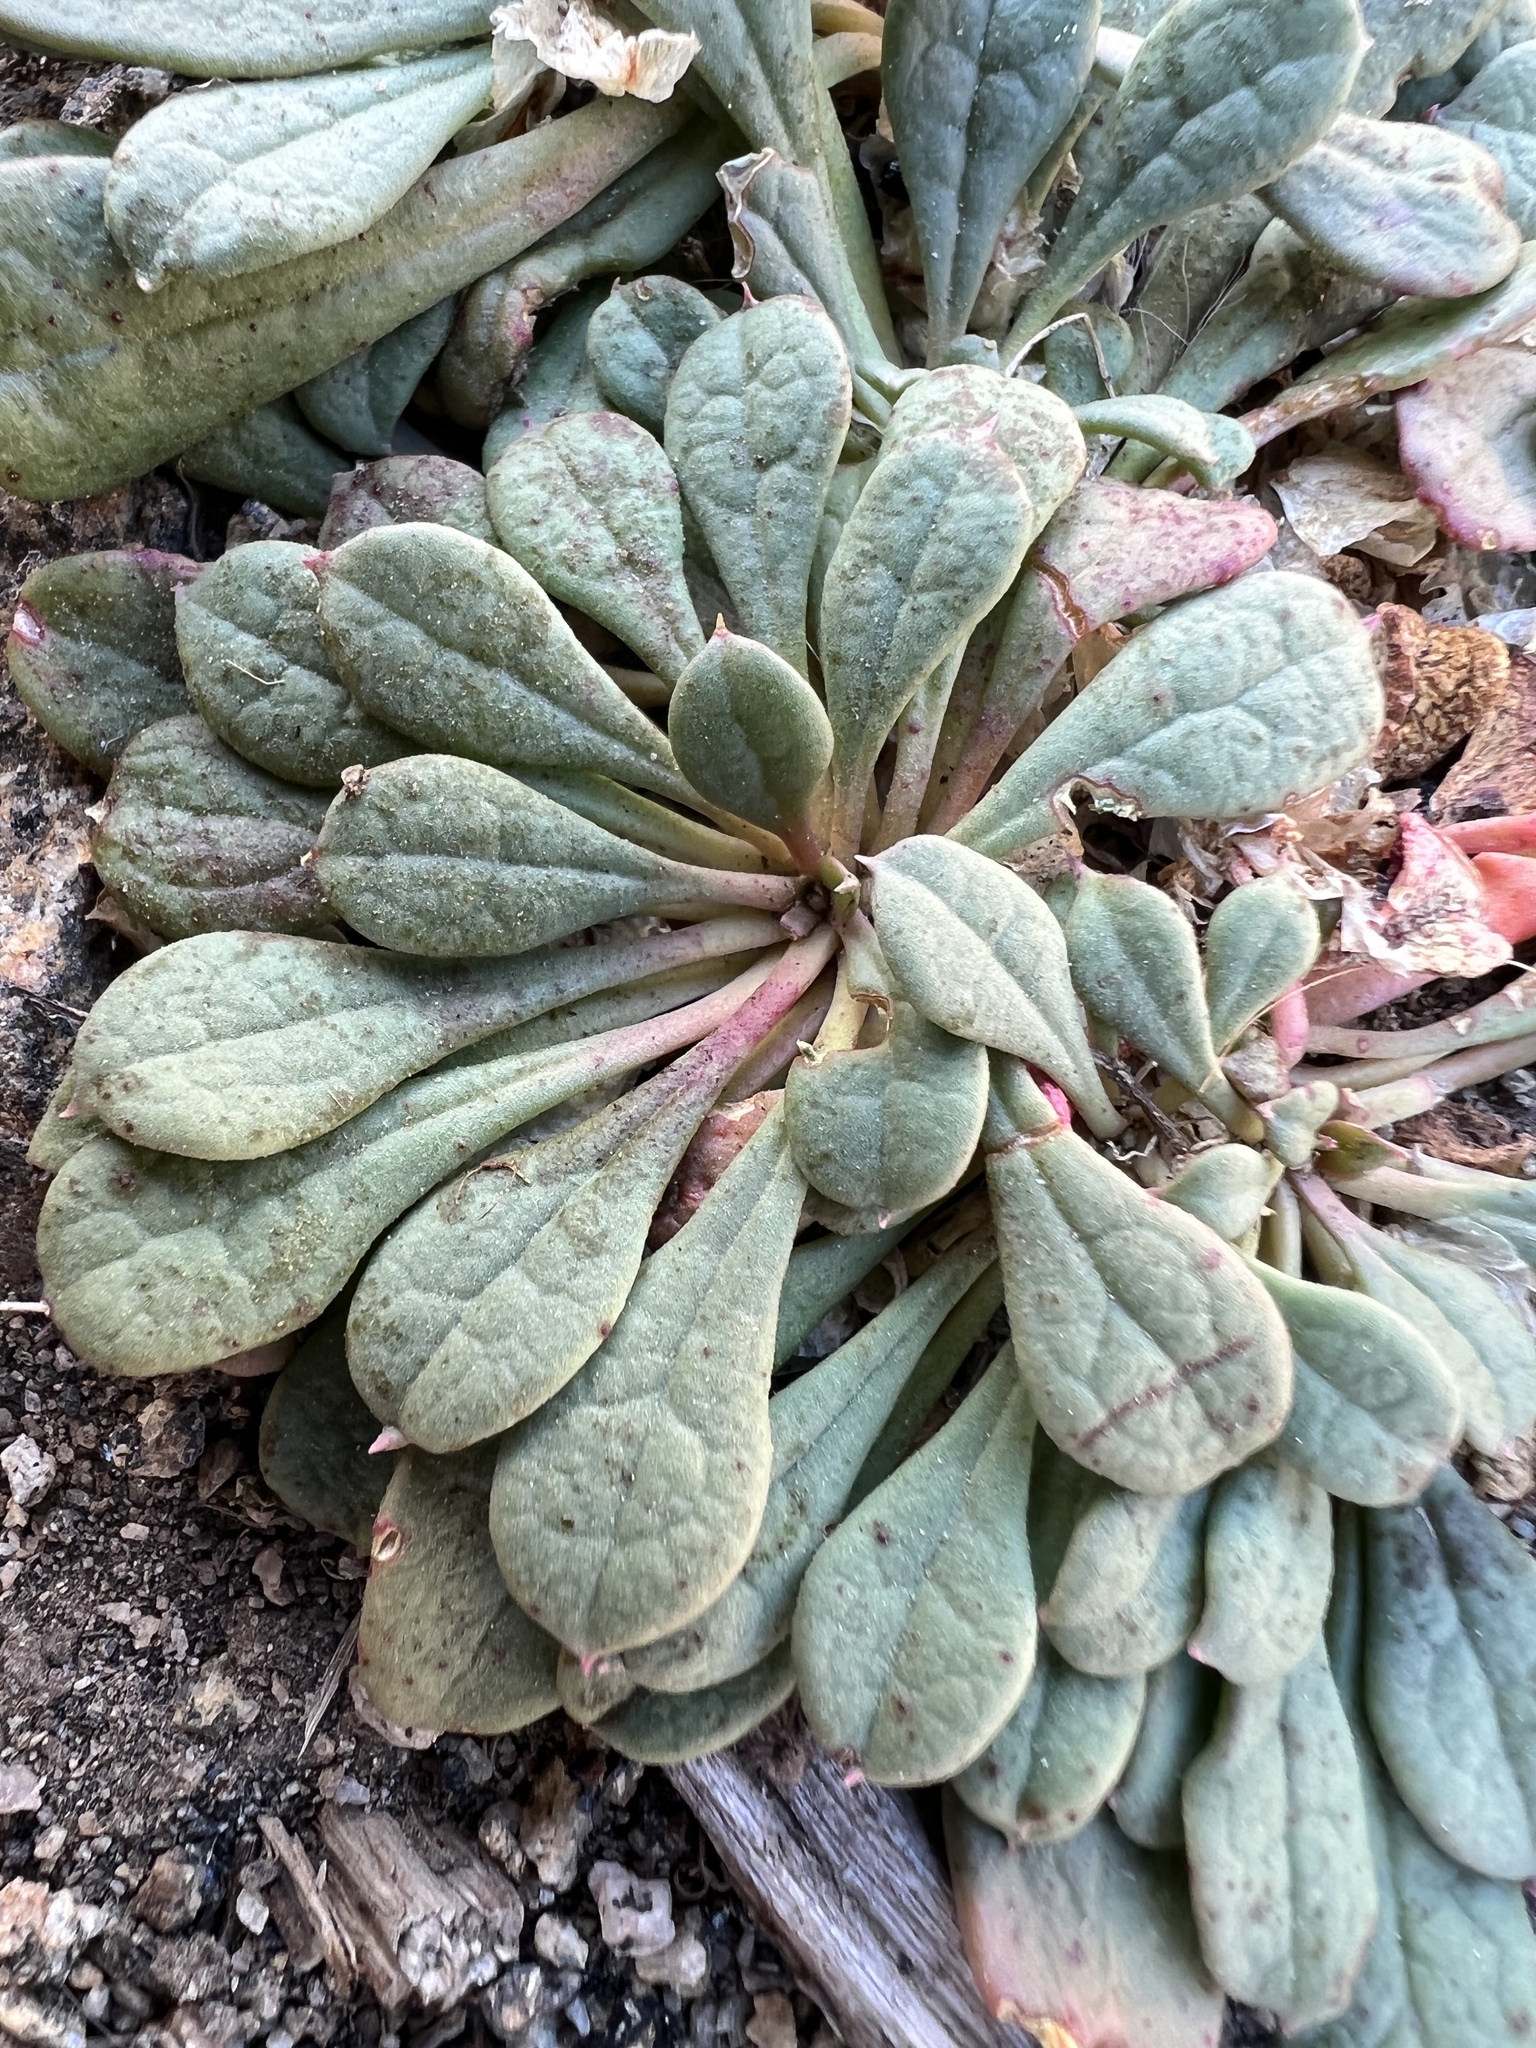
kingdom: Plantae
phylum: Tracheophyta
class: Magnoliopsida
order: Caryophyllales
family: Montiaceae
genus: Calyptridium
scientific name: Calyptridium umbellatum
